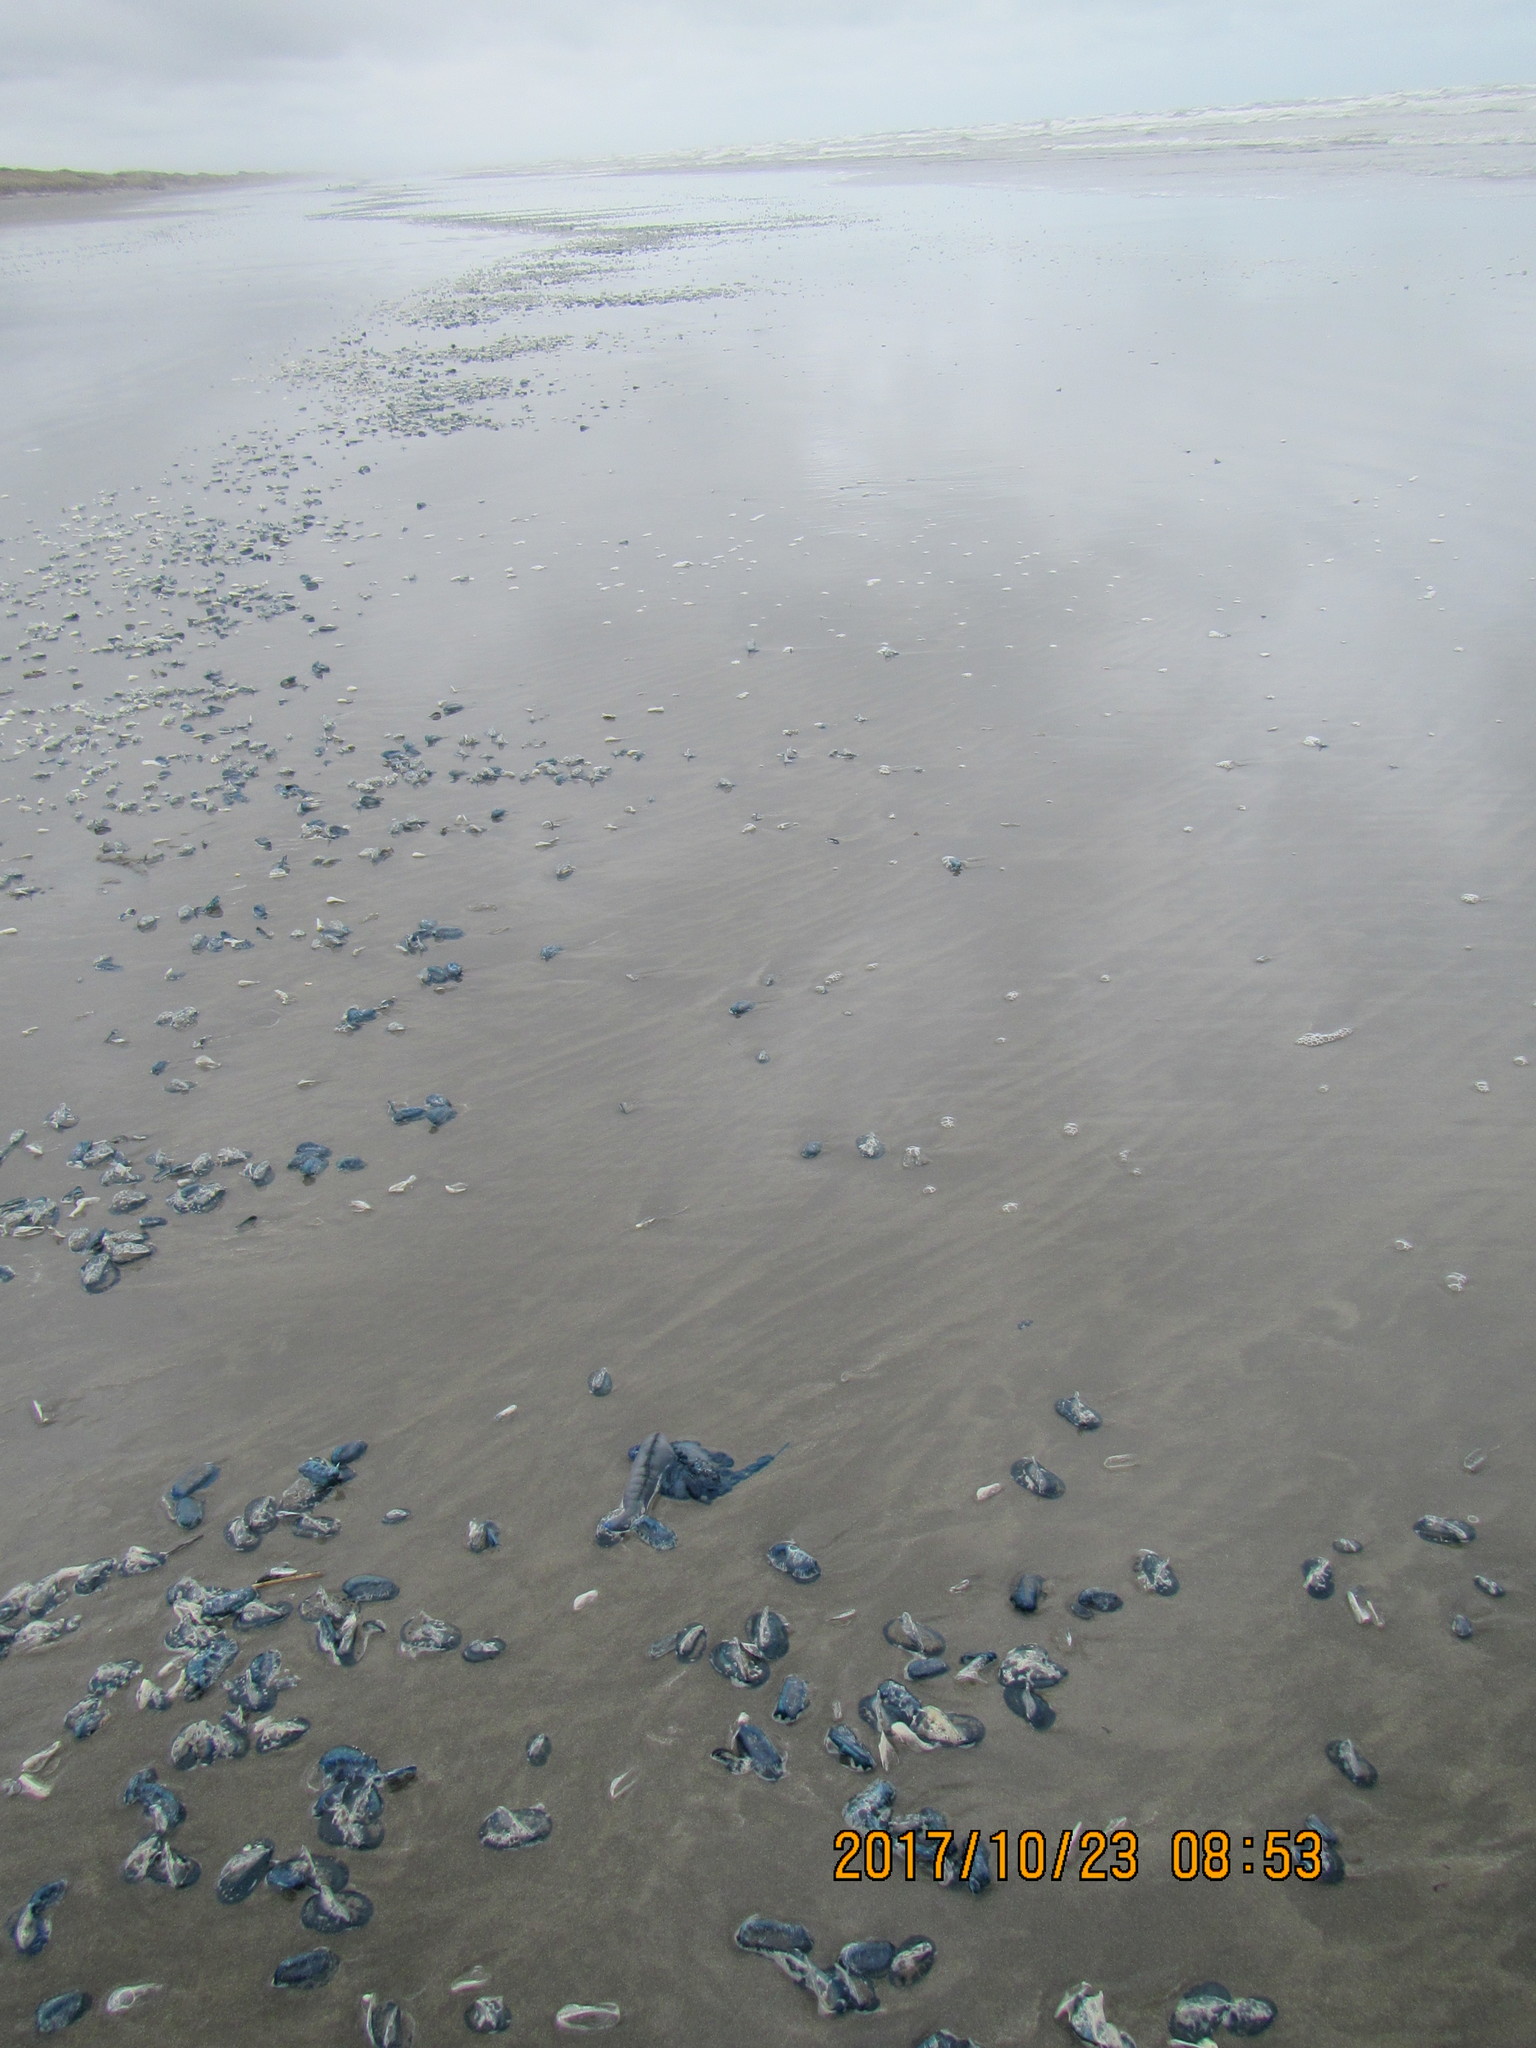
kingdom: Animalia
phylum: Cnidaria
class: Hydrozoa
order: Anthoathecata
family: Porpitidae
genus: Velella
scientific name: Velella velella
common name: By-the-wind-sailor
